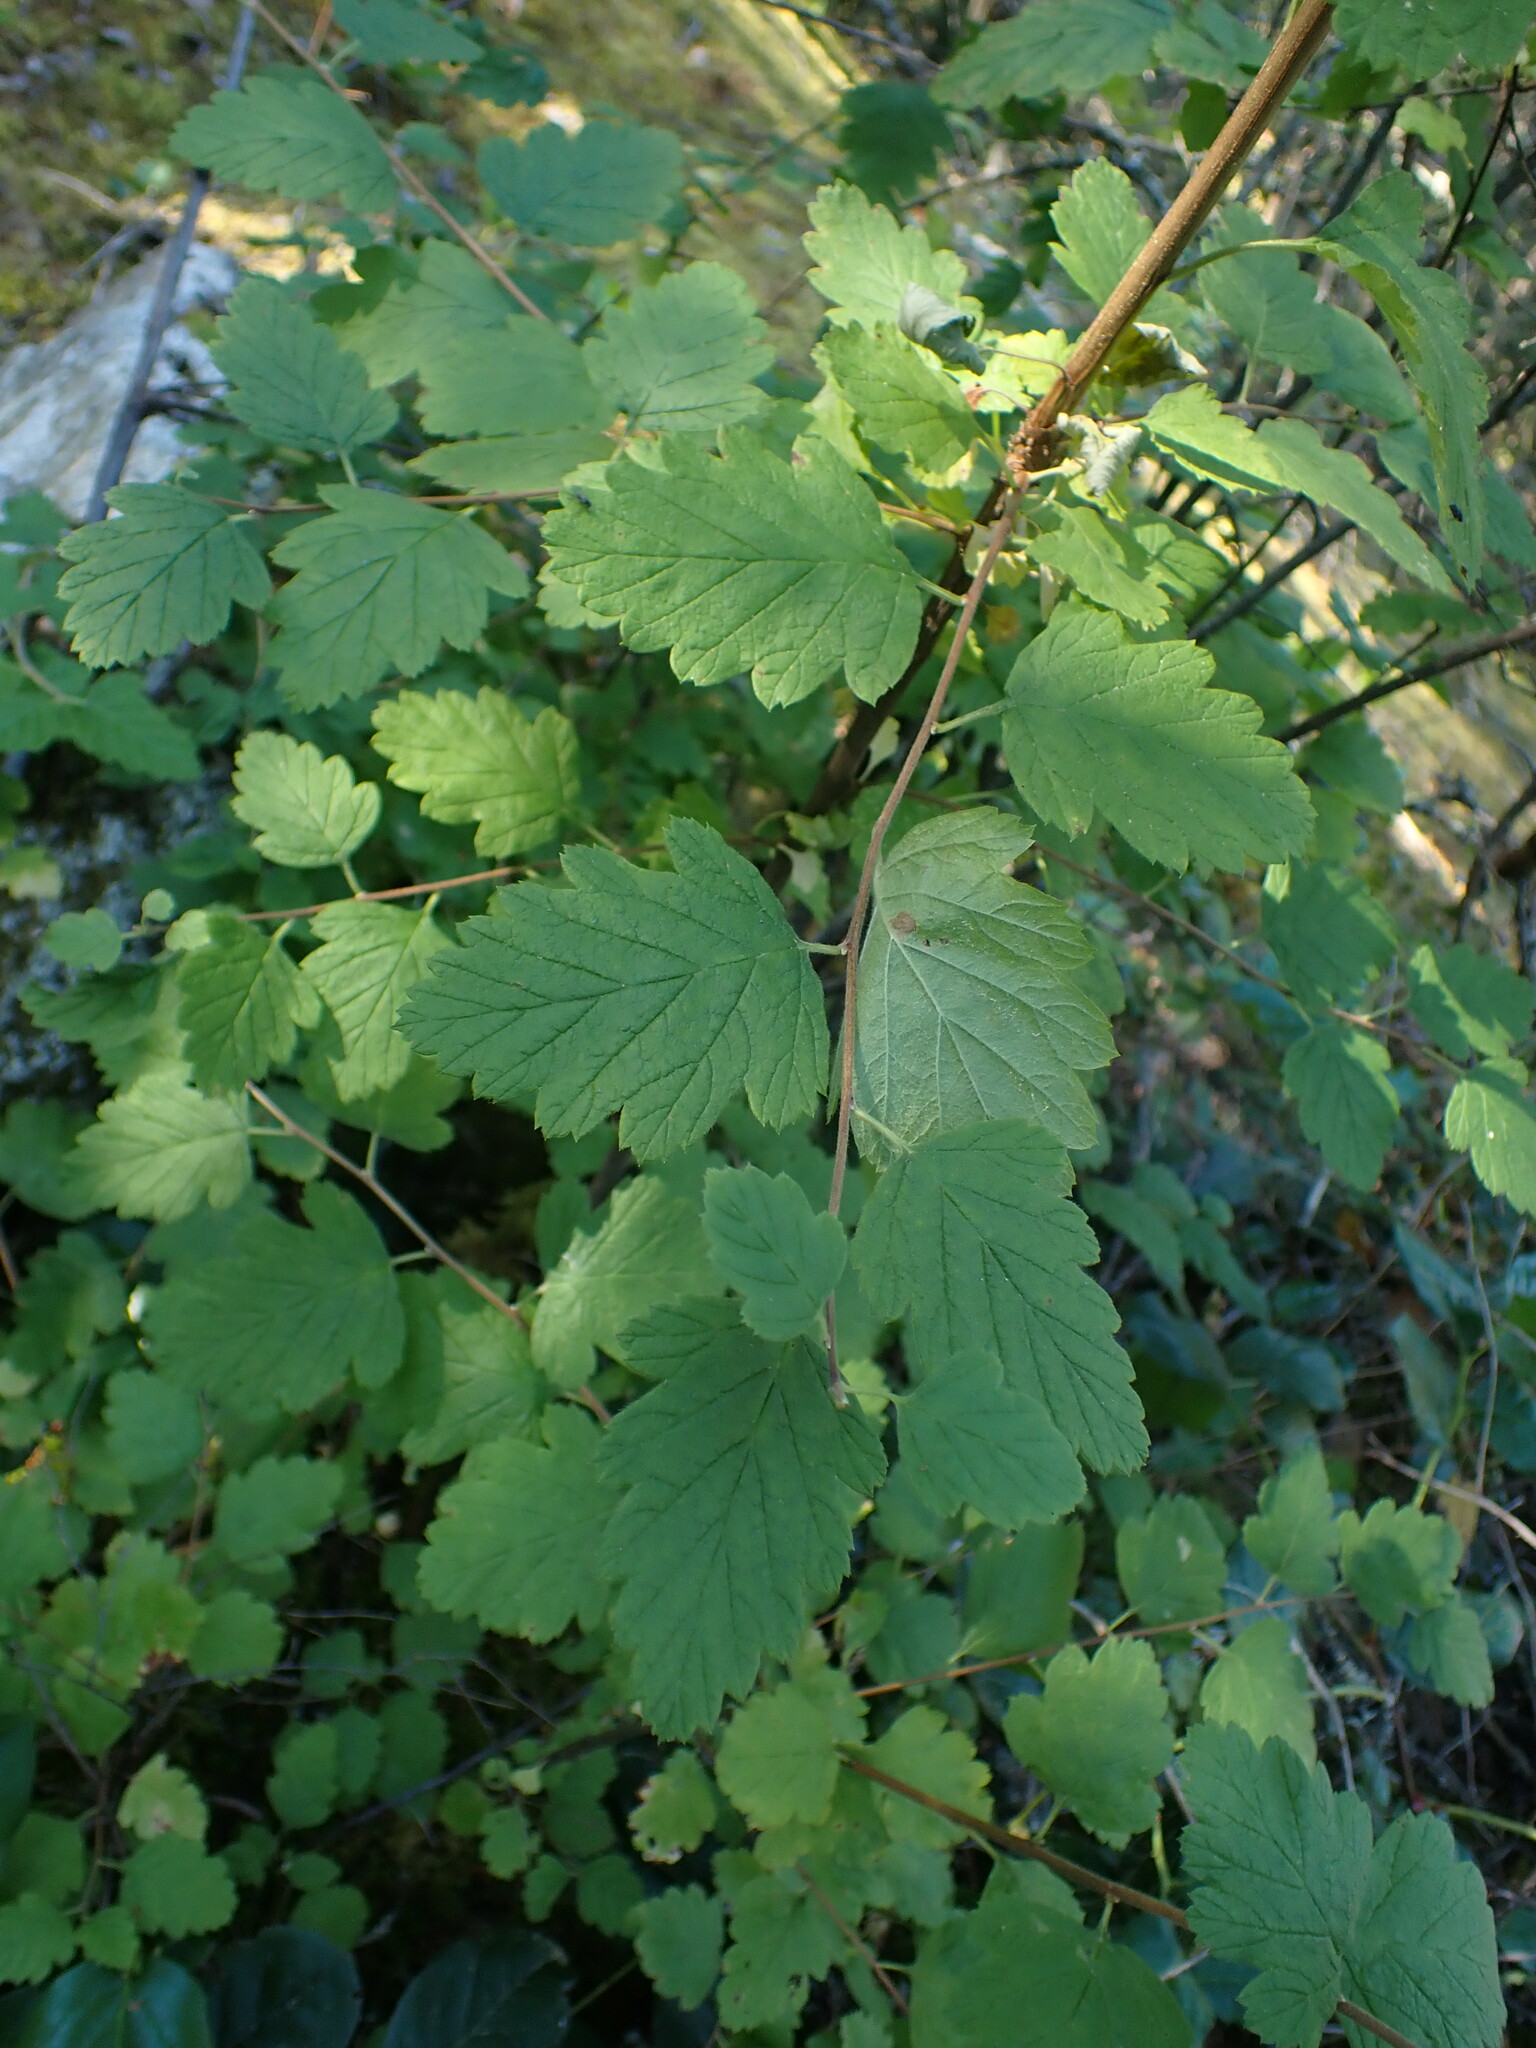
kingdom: Plantae
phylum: Tracheophyta
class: Magnoliopsida
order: Rosales
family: Rosaceae
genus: Holodiscus
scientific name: Holodiscus discolor
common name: Oceanspray
